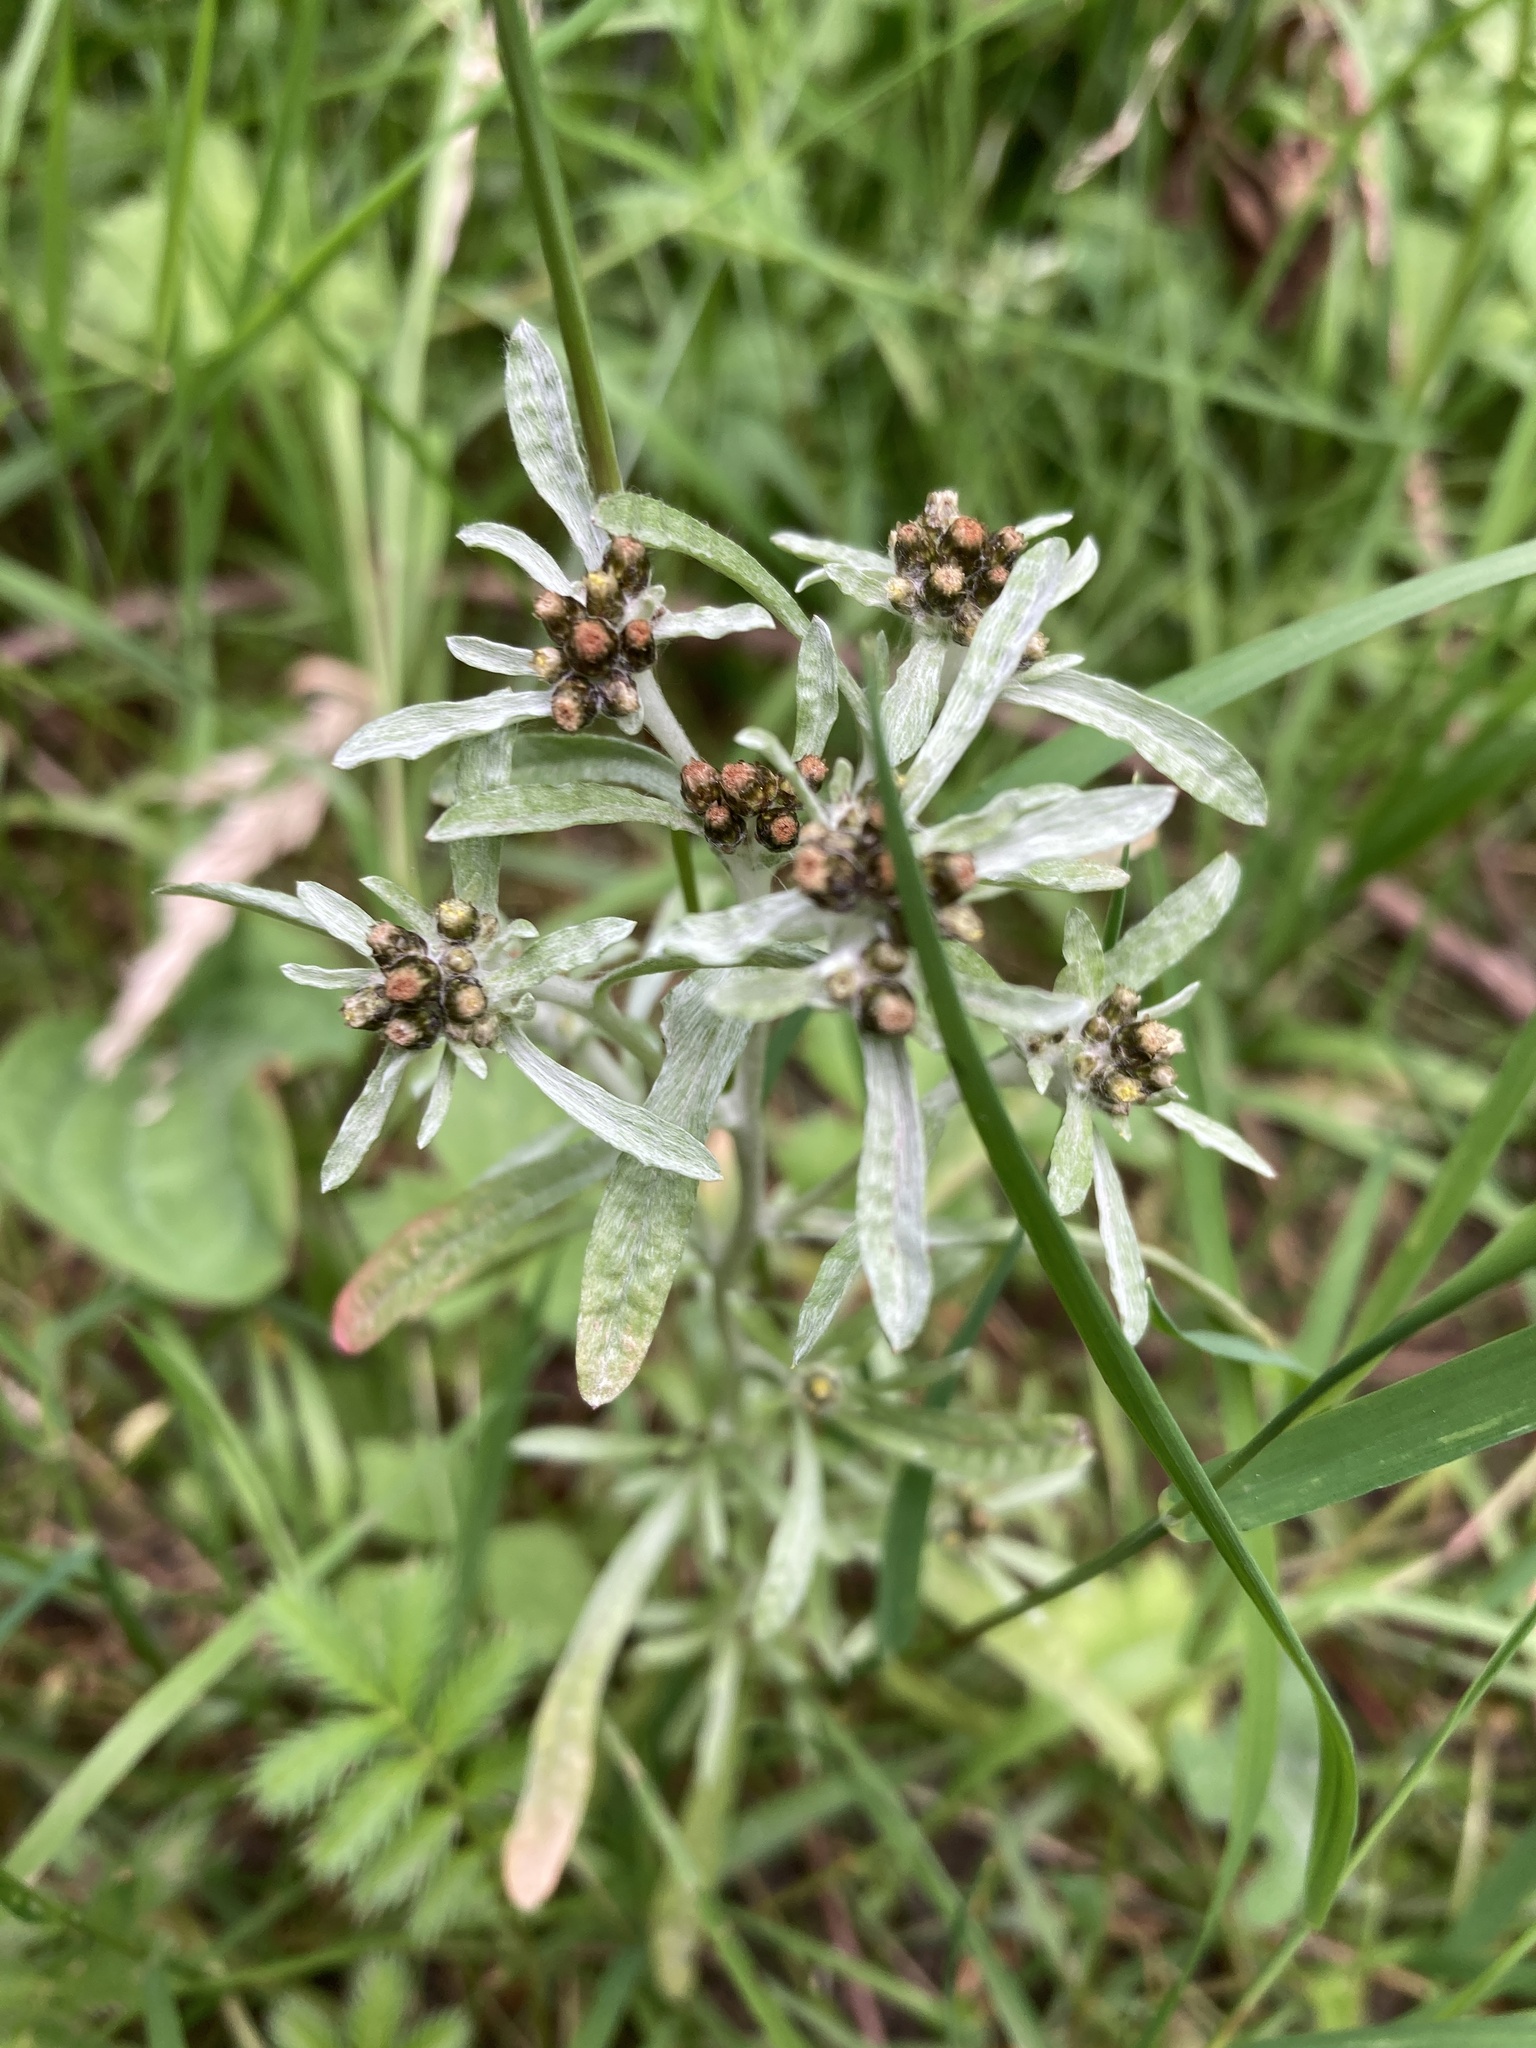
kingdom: Plantae
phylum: Tracheophyta
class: Magnoliopsida
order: Asterales
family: Asteraceae
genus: Gnaphalium
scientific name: Gnaphalium uliginosum
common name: Marsh cudweed
